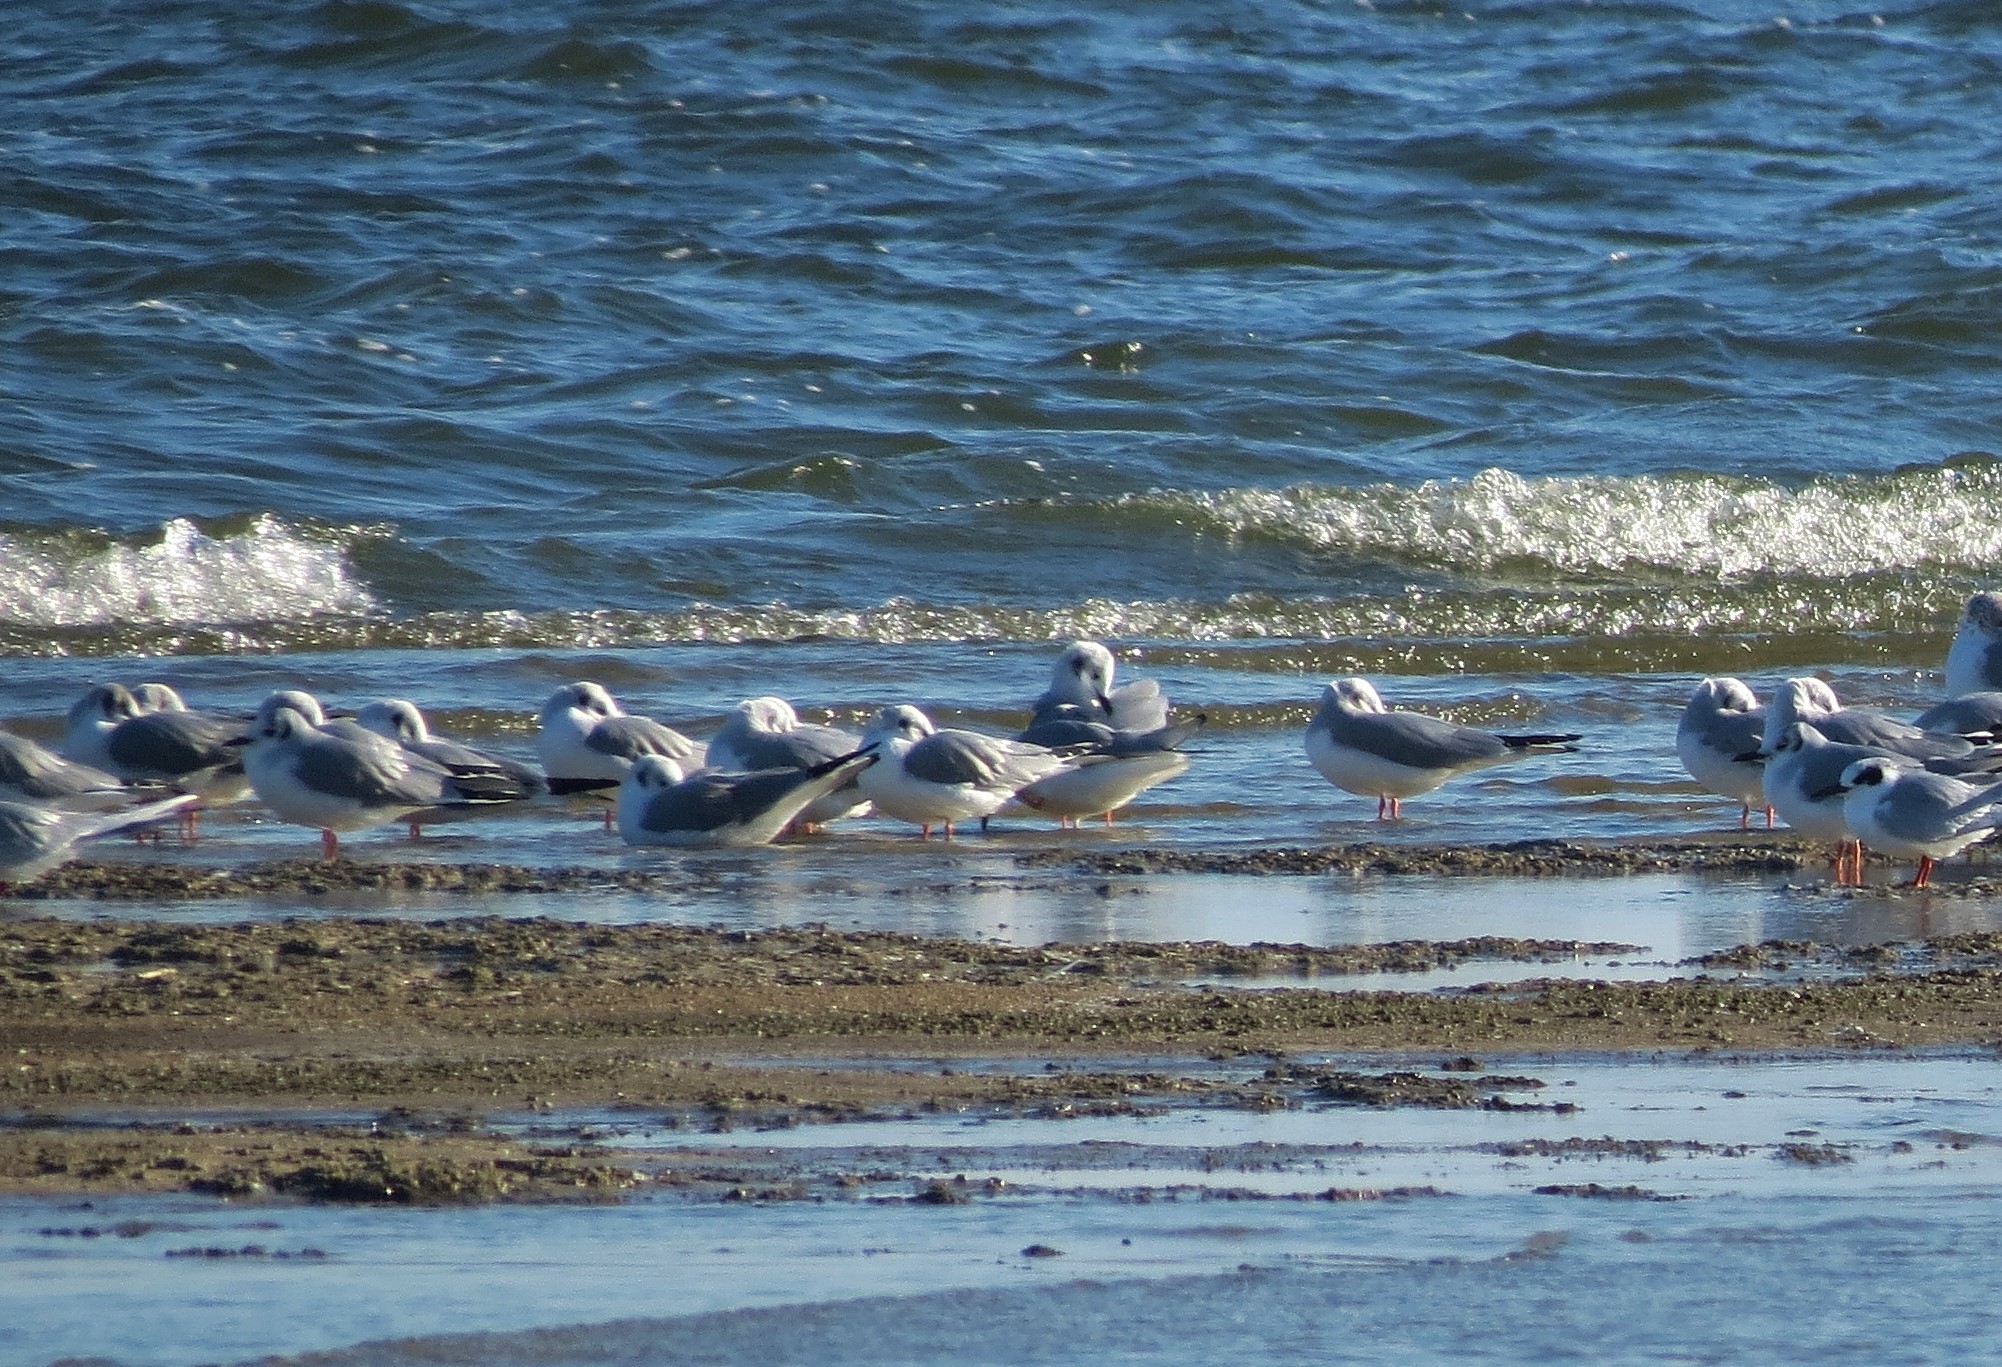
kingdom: Animalia
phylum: Chordata
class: Aves
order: Charadriiformes
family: Laridae
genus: Chroicocephalus
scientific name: Chroicocephalus philadelphia
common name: Bonaparte's gull
